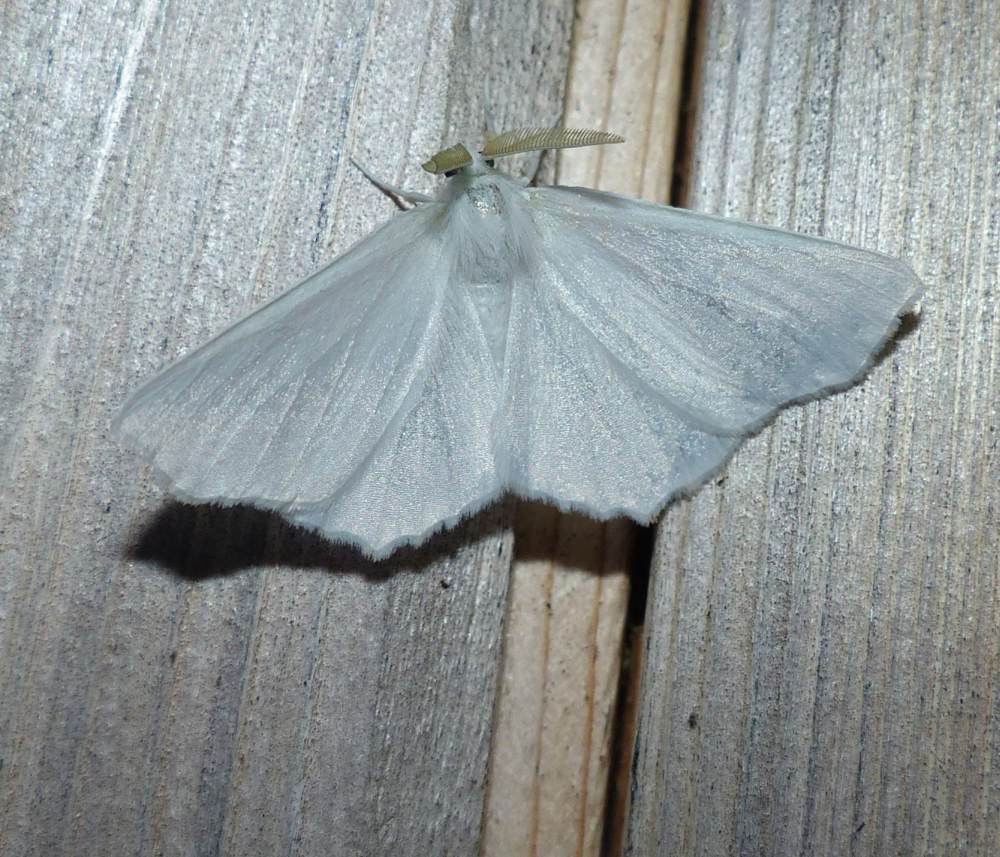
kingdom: Animalia
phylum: Arthropoda
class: Insecta
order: Lepidoptera
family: Geometridae
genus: Ennomos
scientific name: Ennomos subsignaria
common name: Elm spanworm
